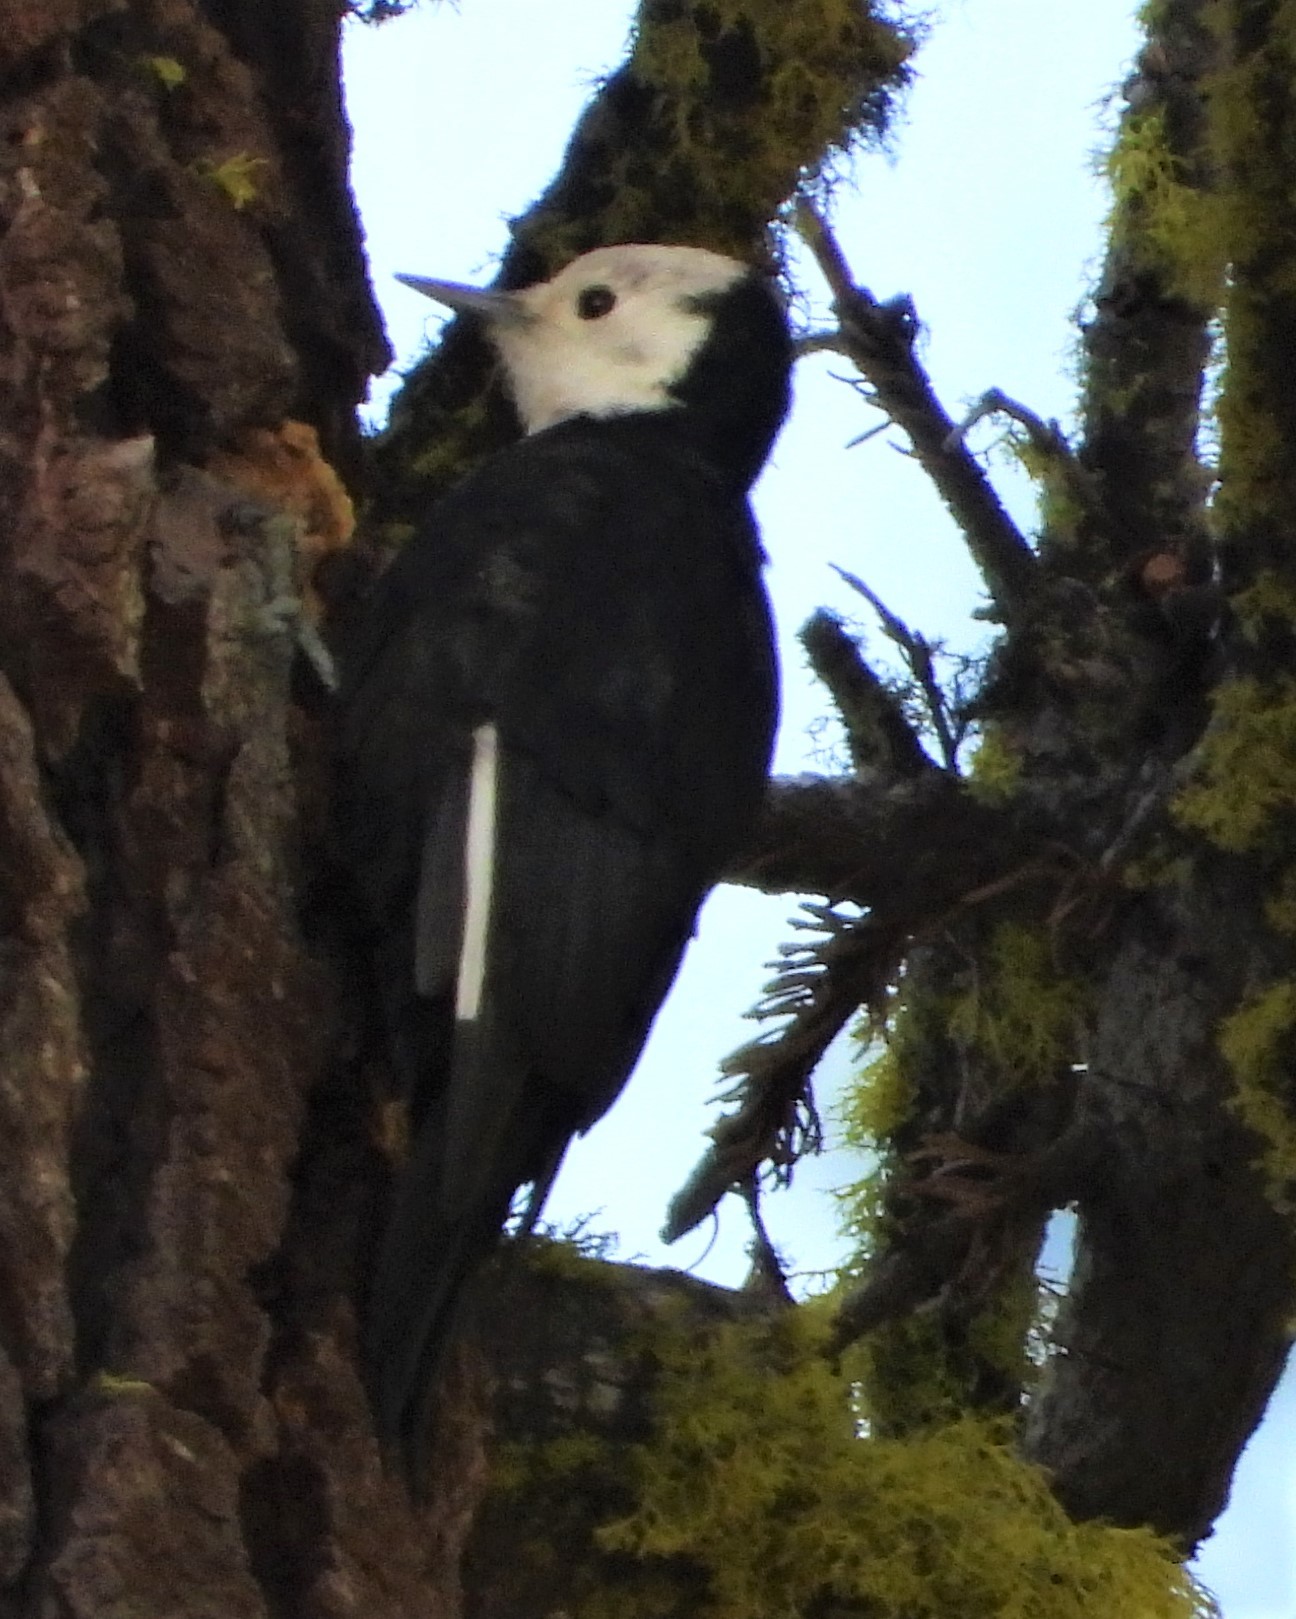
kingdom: Animalia
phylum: Chordata
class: Aves
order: Piciformes
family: Picidae
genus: Leuconotopicus
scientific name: Leuconotopicus albolarvatus
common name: White-headed woodpecker
